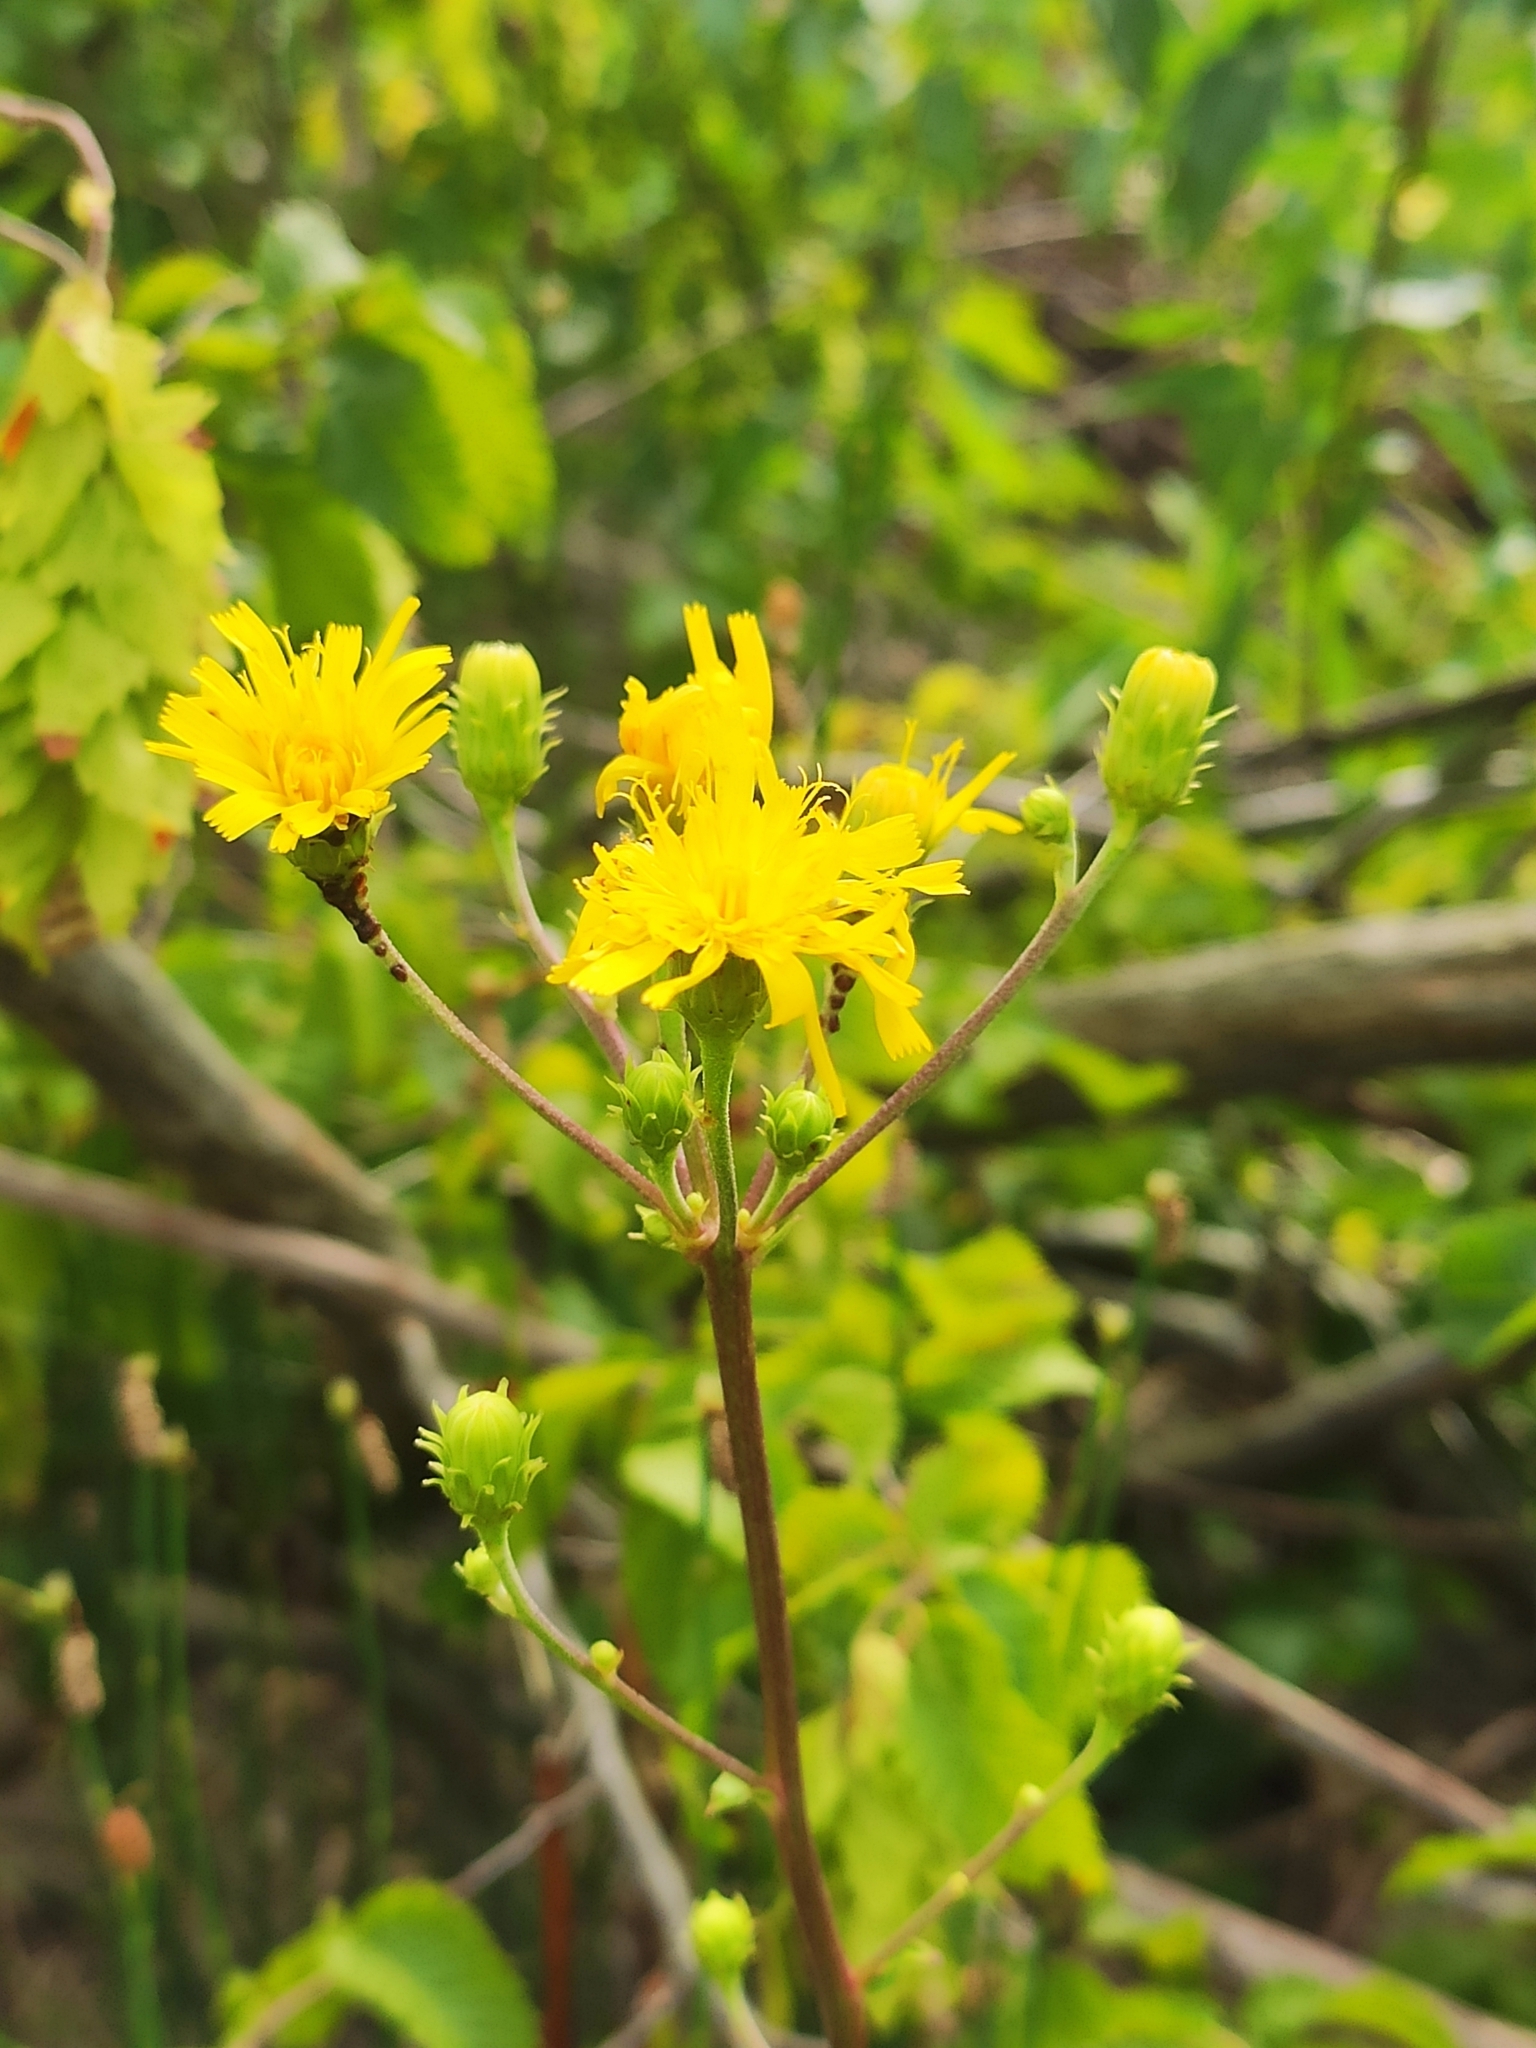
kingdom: Plantae
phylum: Tracheophyta
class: Magnoliopsida
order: Asterales
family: Asteraceae
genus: Hieracium
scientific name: Hieracium umbellatum
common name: Northern hawkweed
